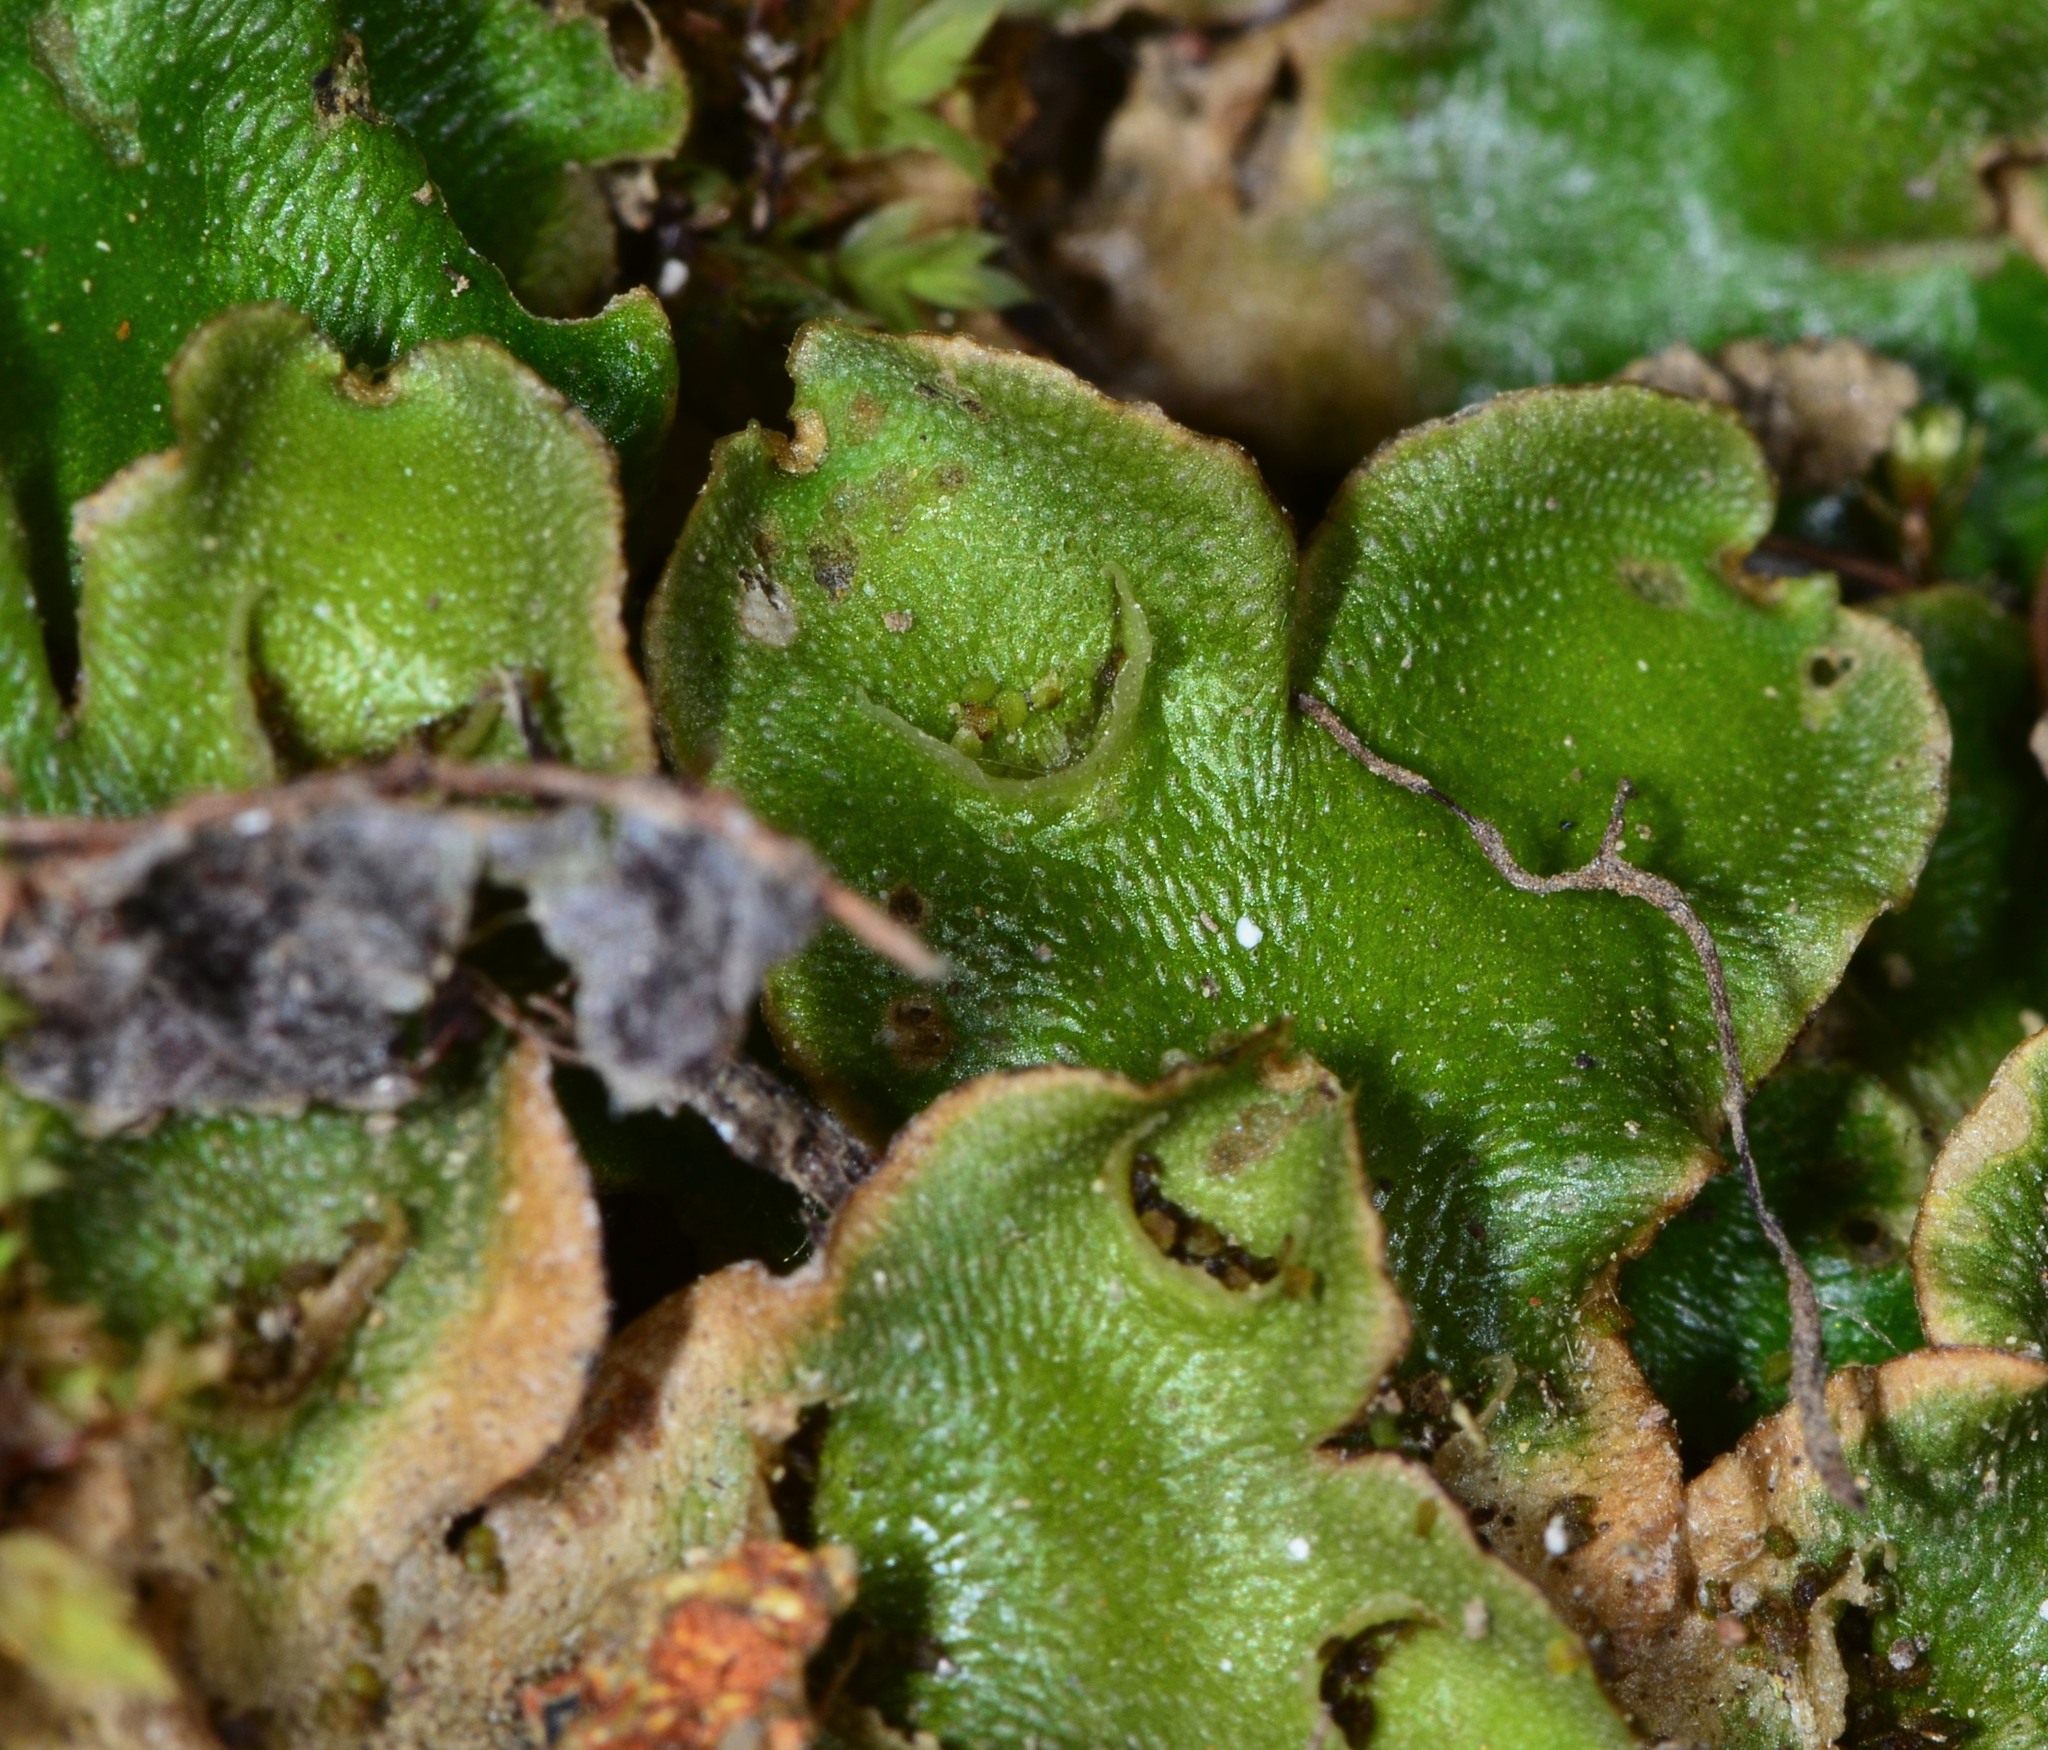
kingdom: Plantae
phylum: Marchantiophyta
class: Marchantiopsida
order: Lunulariales
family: Lunulariaceae
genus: Lunularia
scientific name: Lunularia cruciata
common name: Crescent-cup liverwort
